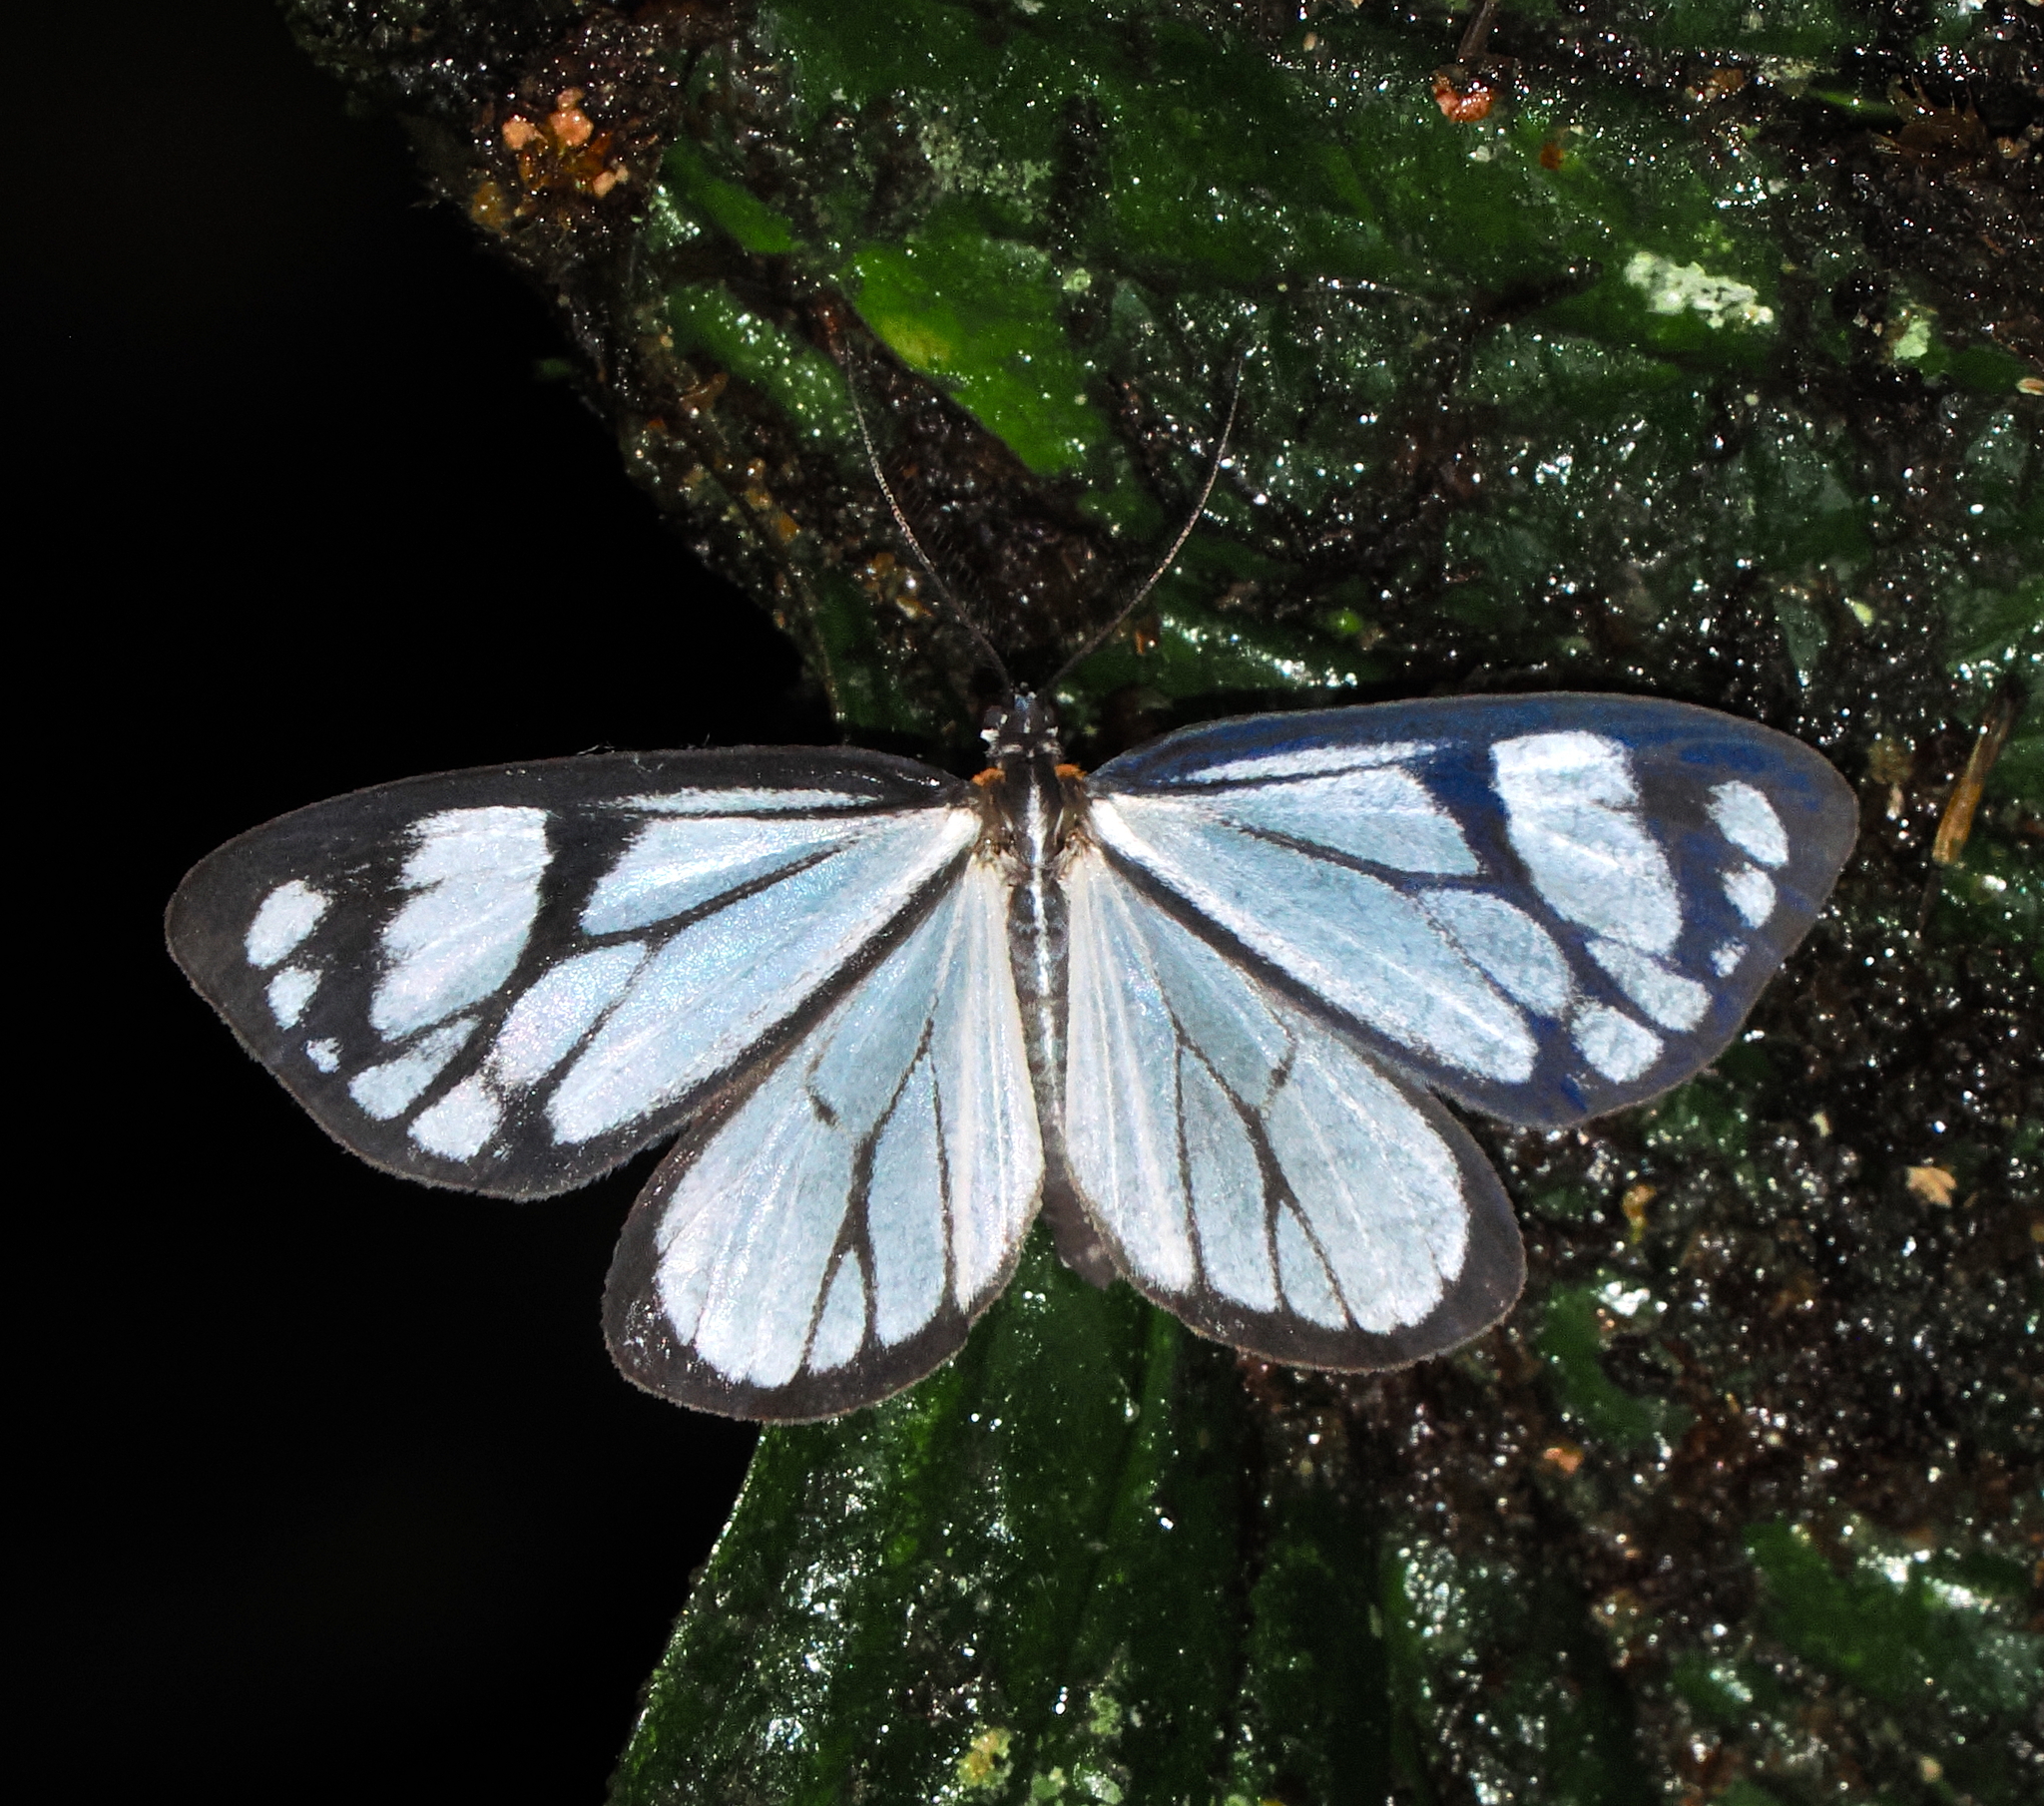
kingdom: Animalia
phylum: Arthropoda
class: Insecta
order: Lepidoptera
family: Notodontidae
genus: Isostyla
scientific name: Isostyla
